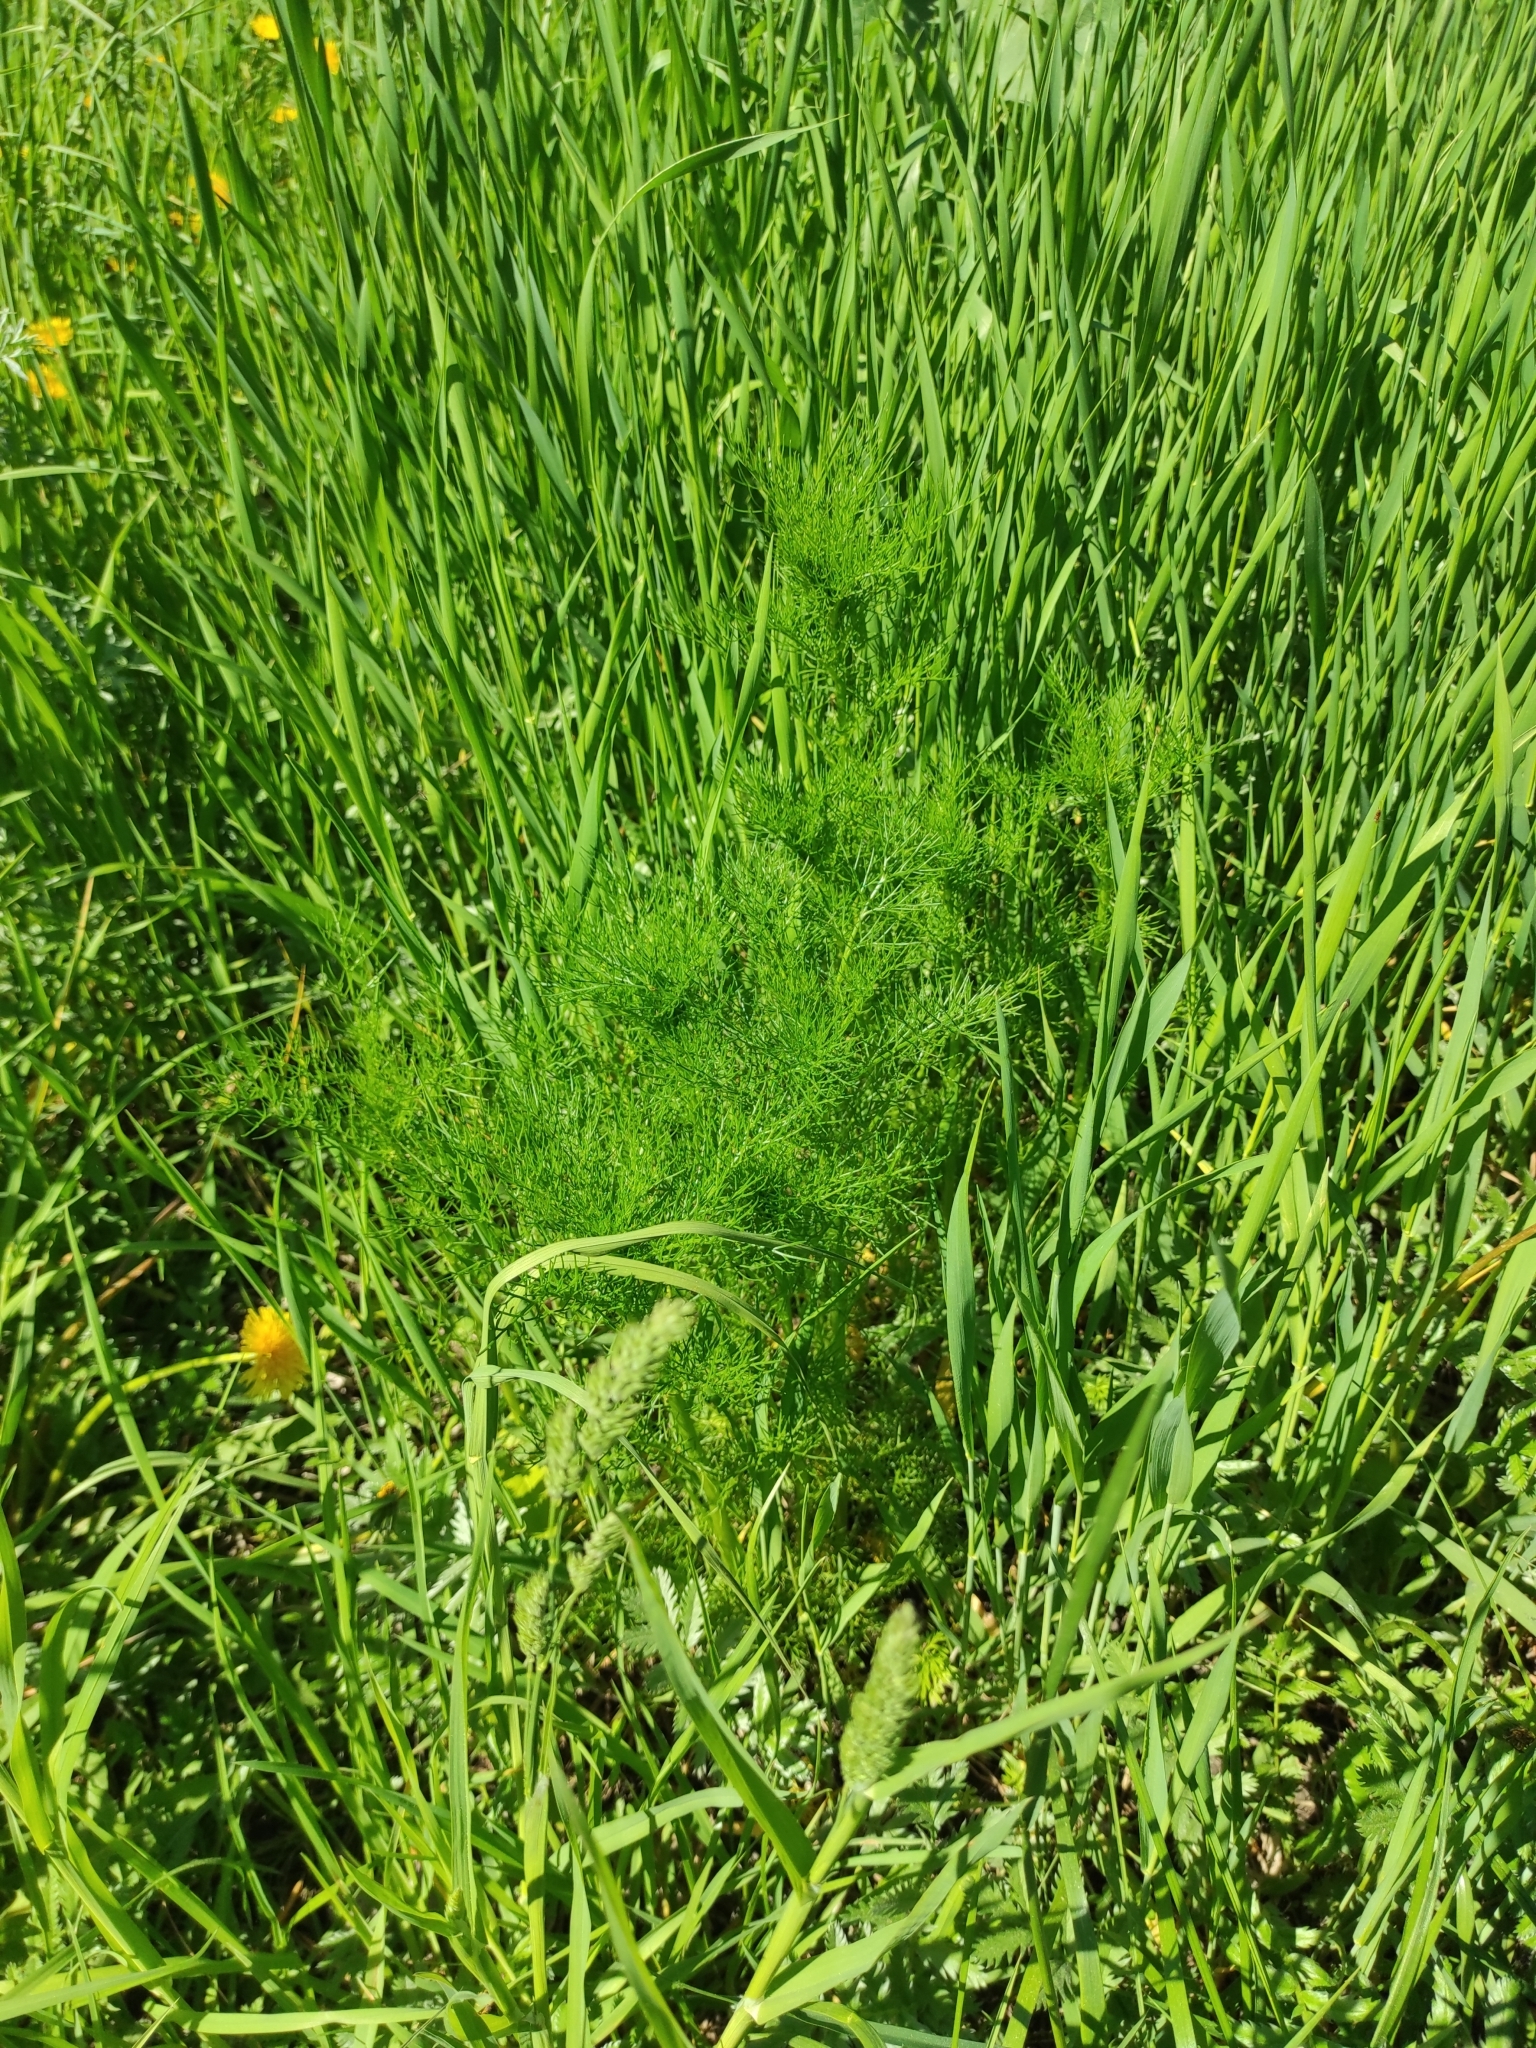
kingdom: Plantae
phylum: Tracheophyta
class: Magnoliopsida
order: Asterales
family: Asteraceae
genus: Tripleurospermum
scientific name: Tripleurospermum inodorum
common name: Scentless mayweed
